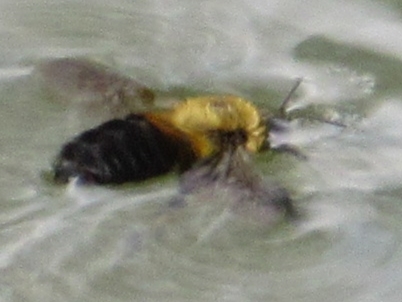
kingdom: Animalia
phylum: Arthropoda
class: Insecta
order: Hymenoptera
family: Apidae
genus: Bombus
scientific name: Bombus griseocollis
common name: Brown-belted bumble bee
